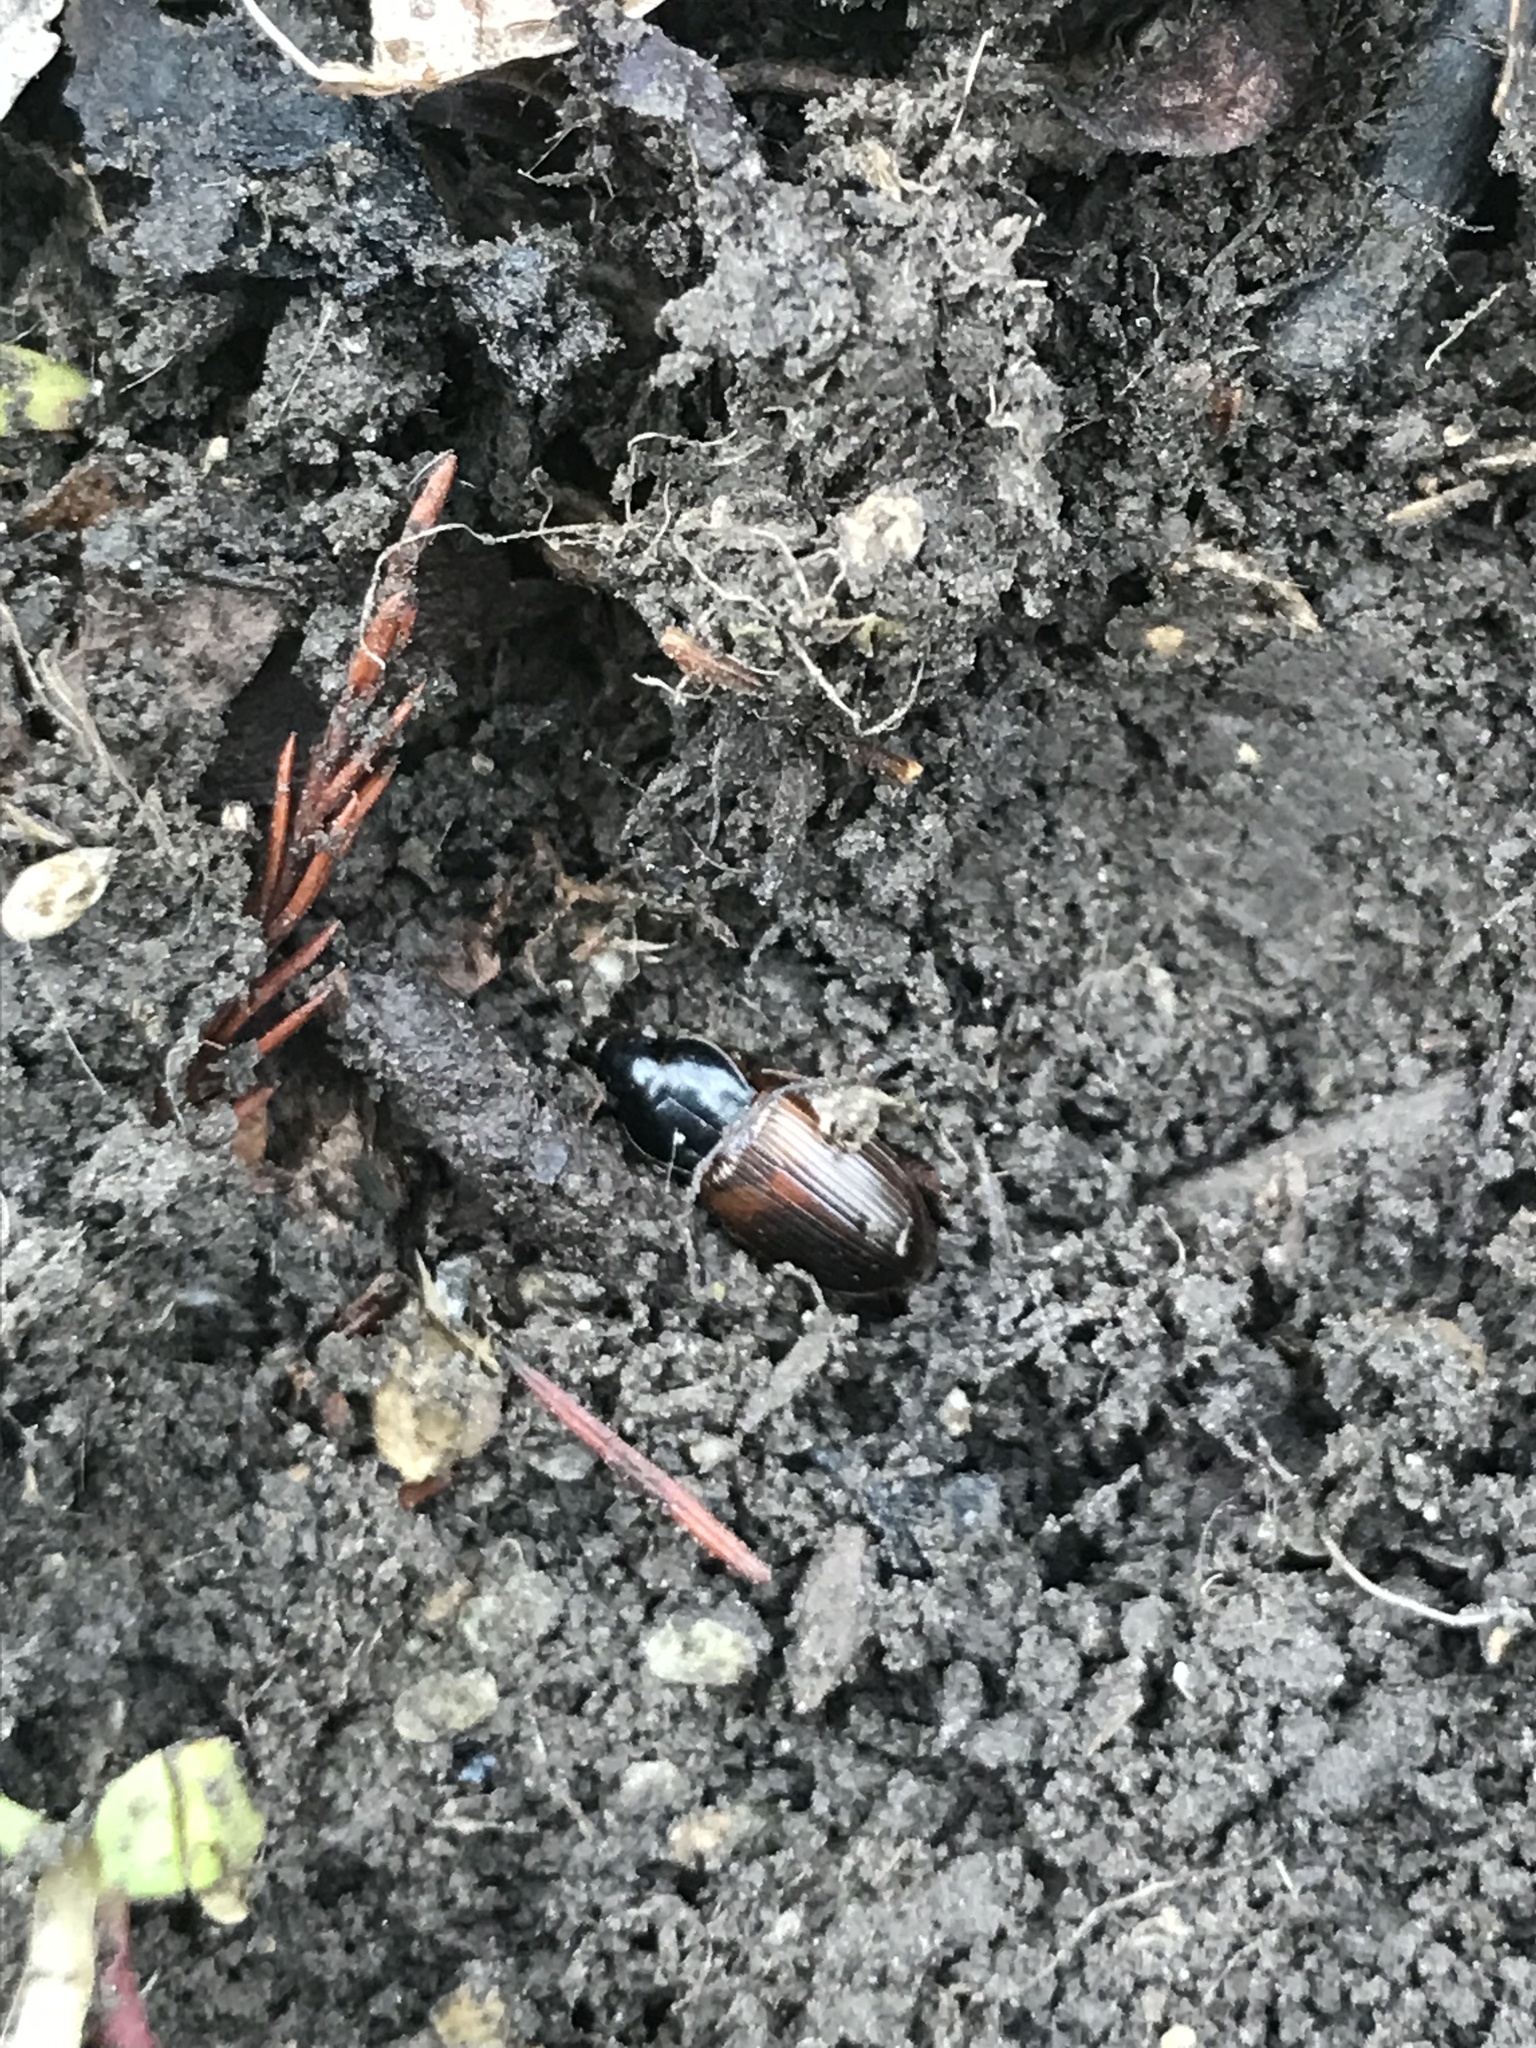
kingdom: Animalia
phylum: Arthropoda
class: Insecta
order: Coleoptera
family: Carabidae
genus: Anisodactylus
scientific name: Anisodactylus sanctaecrucis
